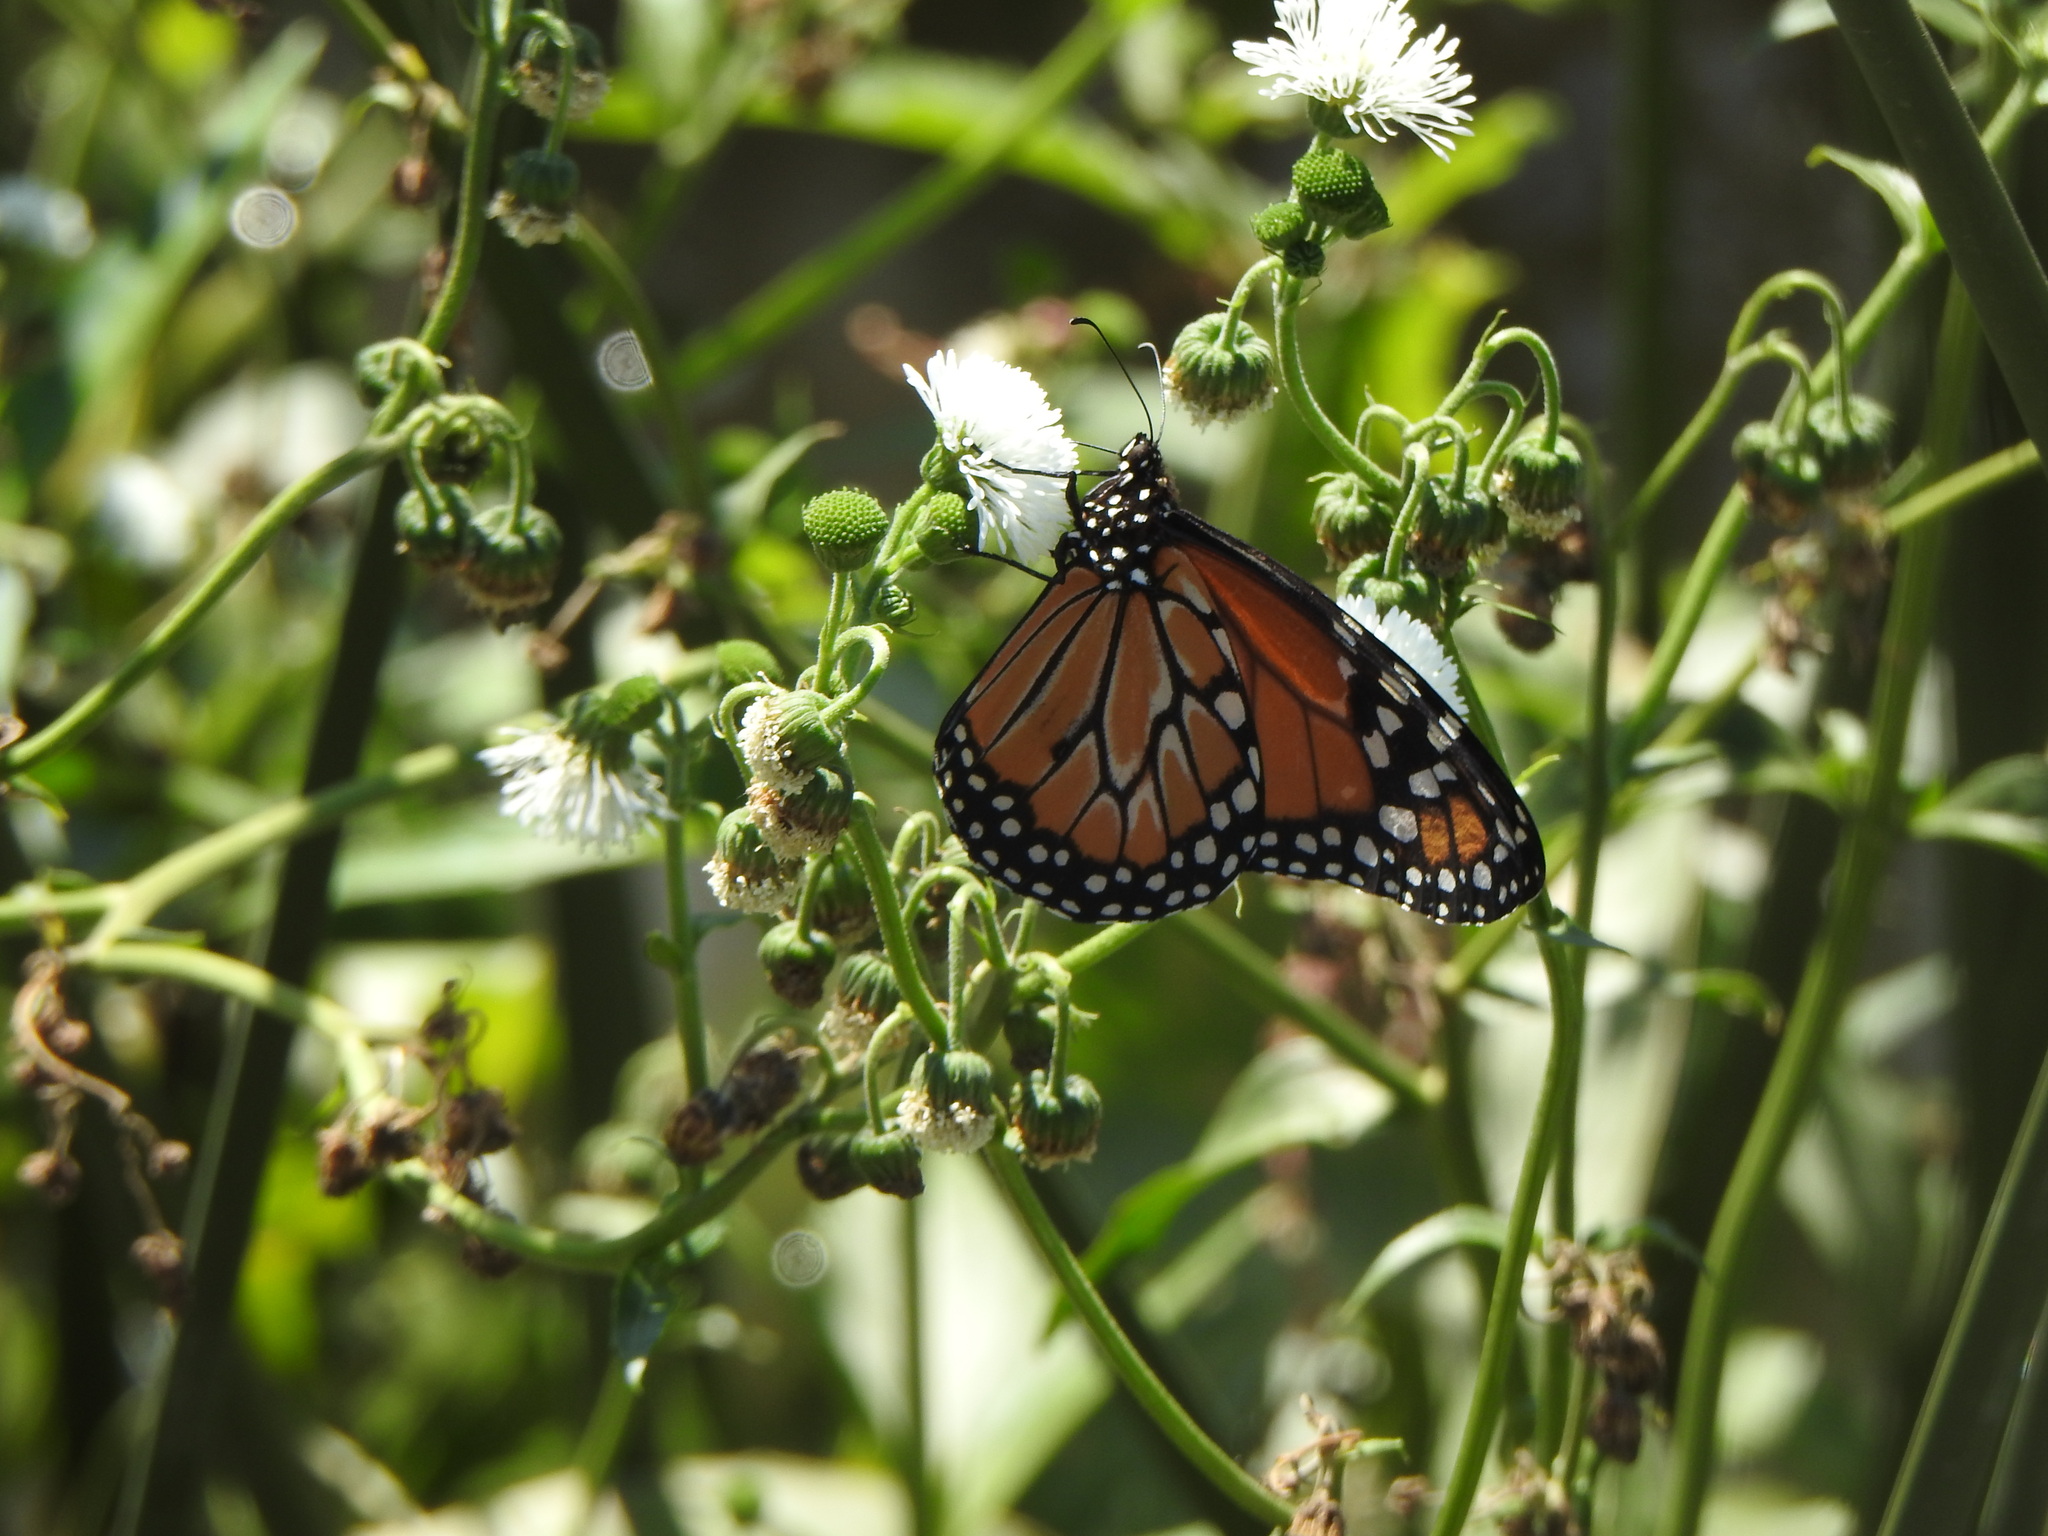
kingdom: Animalia
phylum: Arthropoda
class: Insecta
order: Lepidoptera
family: Nymphalidae
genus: Danaus
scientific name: Danaus erippus
